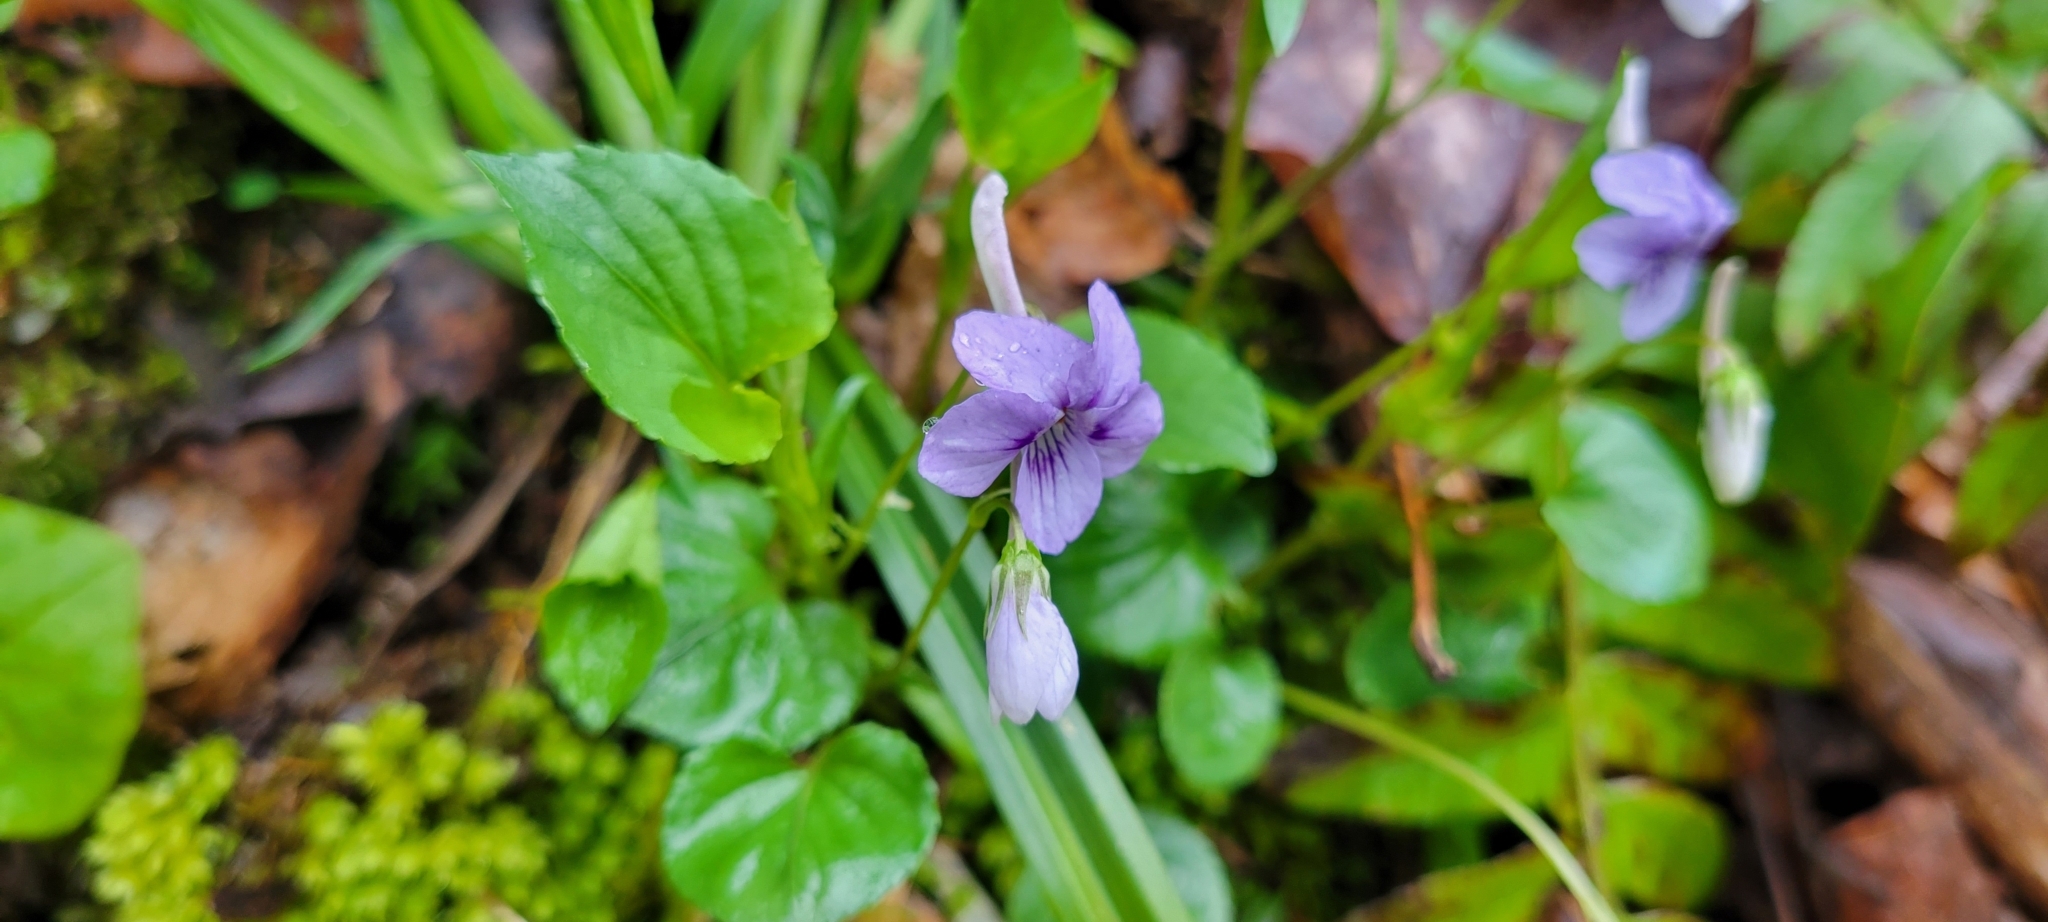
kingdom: Plantae
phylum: Tracheophyta
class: Magnoliopsida
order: Malpighiales
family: Violaceae
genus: Viola
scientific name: Viola rostrata
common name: Long-spur violet
